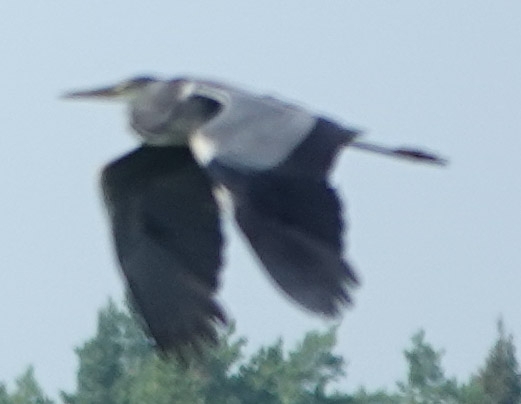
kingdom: Animalia
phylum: Chordata
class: Aves
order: Pelecaniformes
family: Ardeidae
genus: Ardea
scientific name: Ardea cinerea
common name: Grey heron
